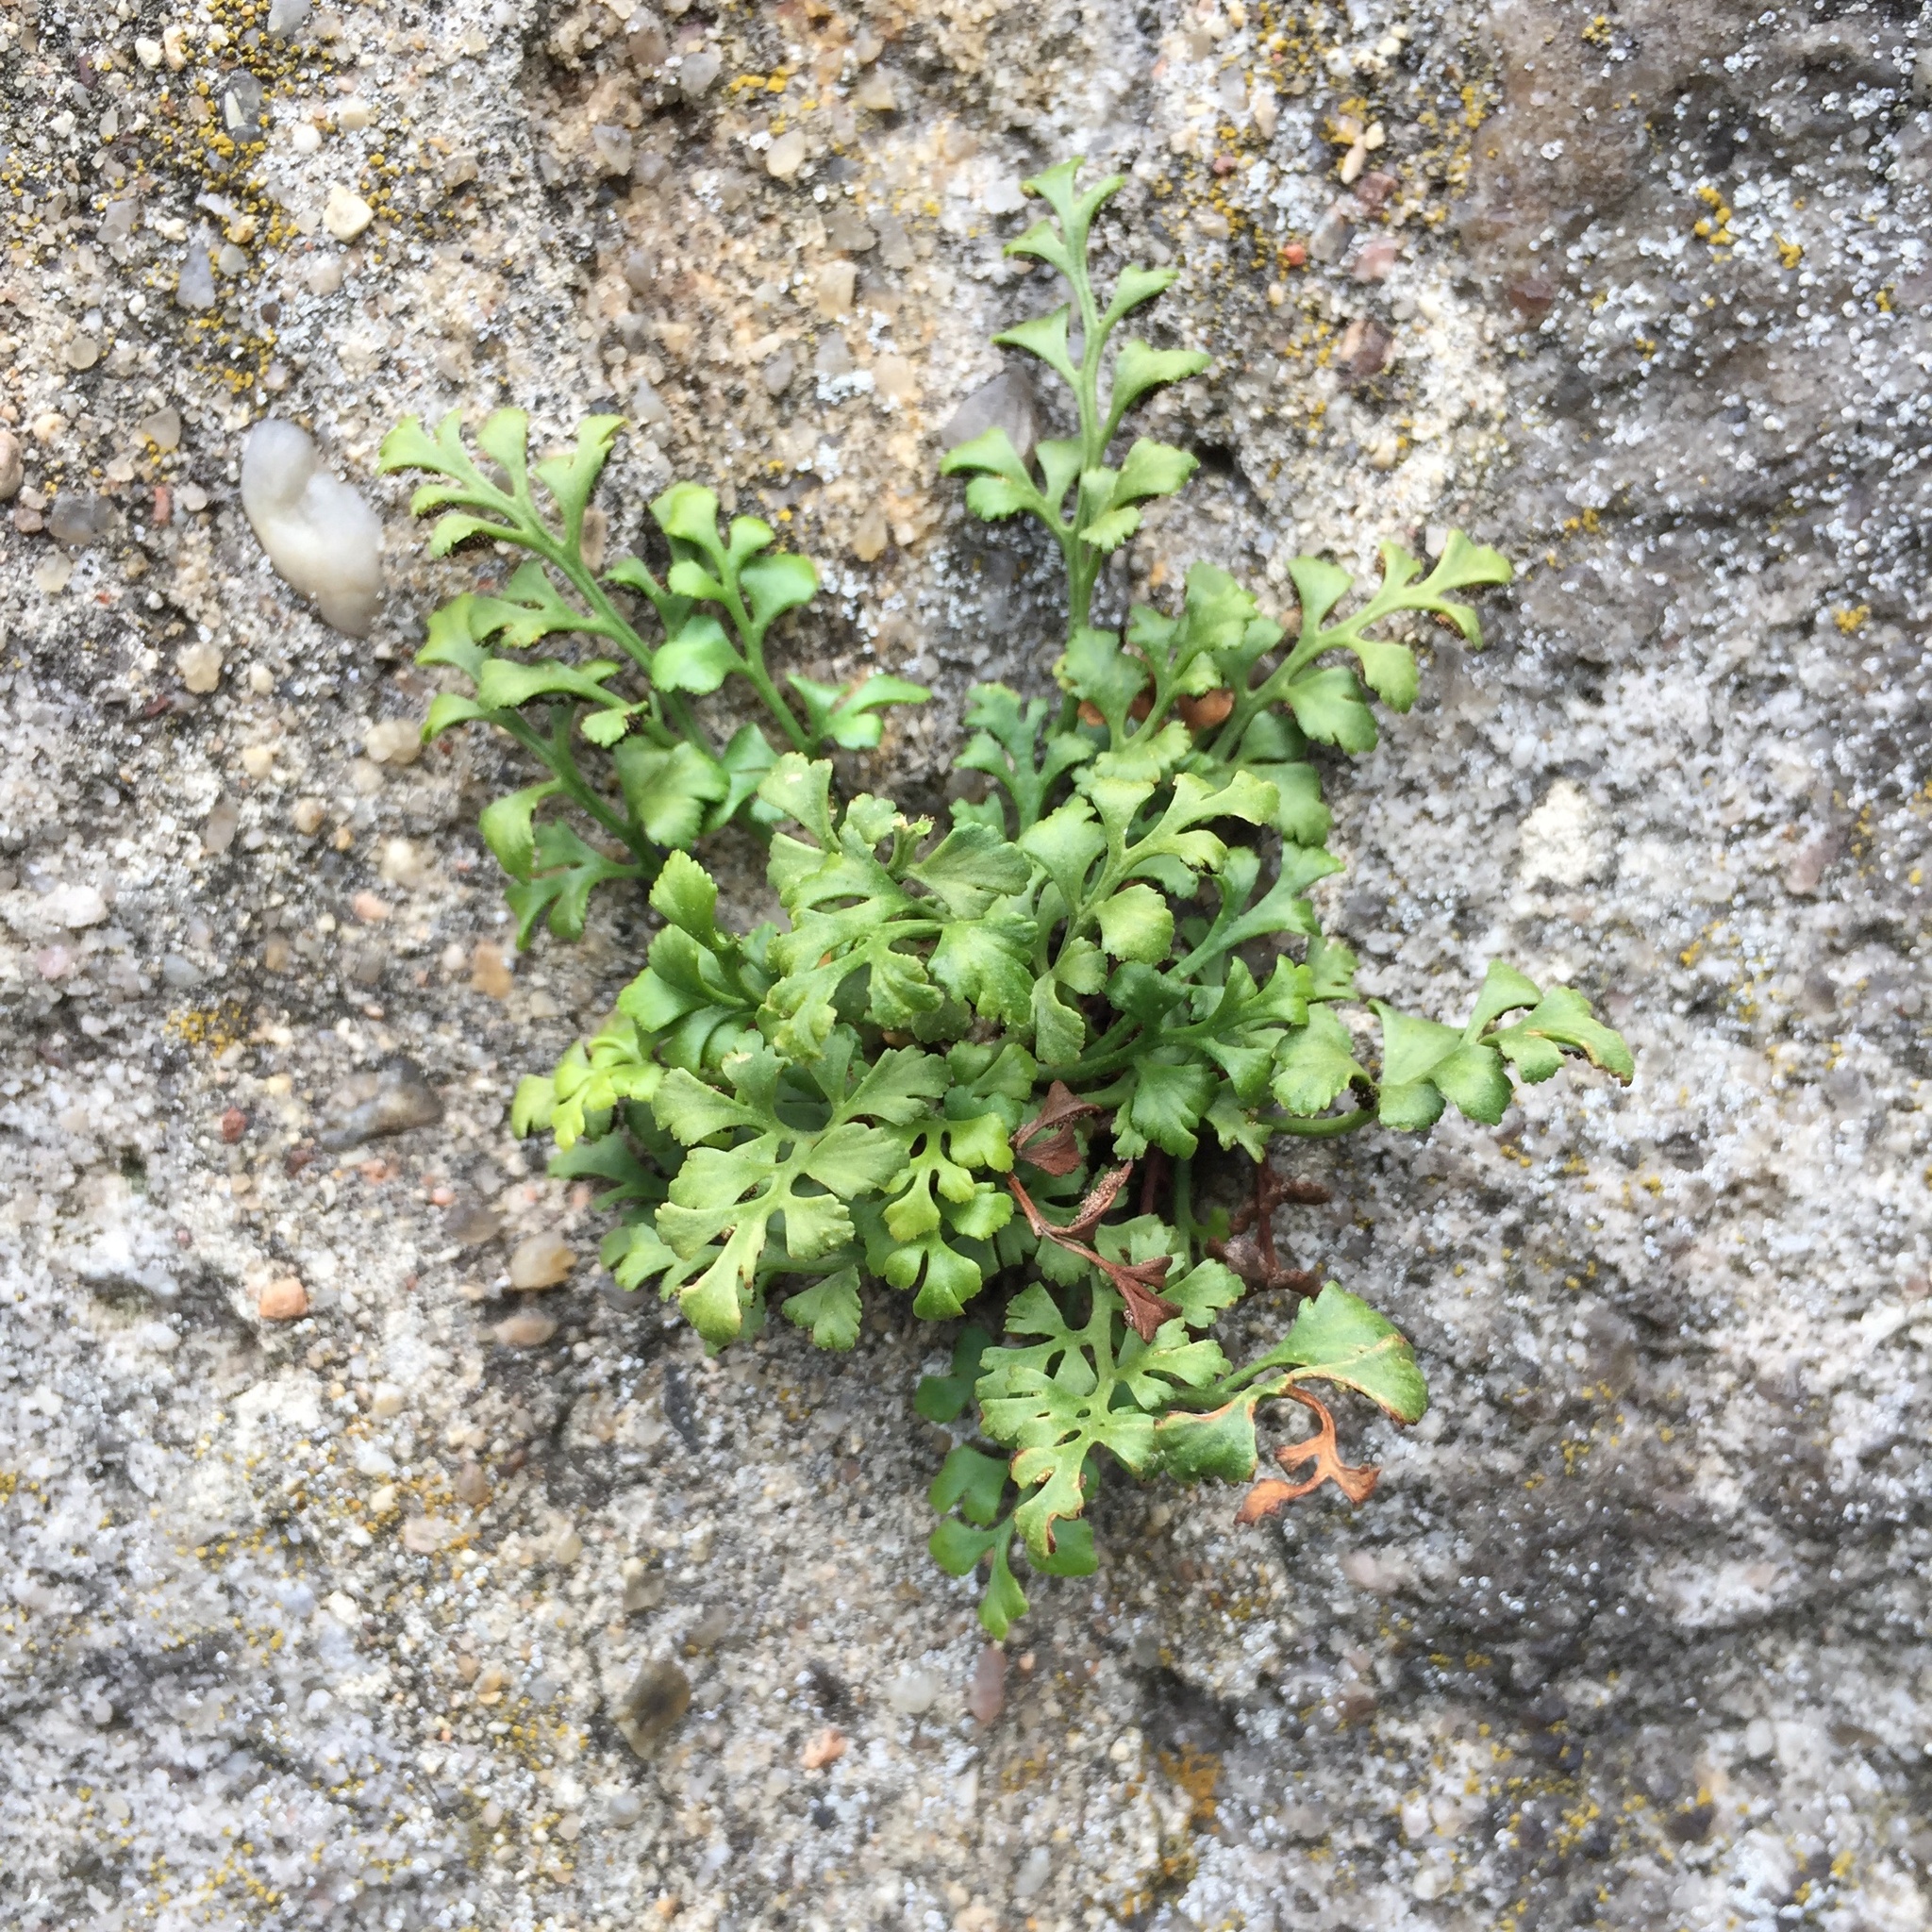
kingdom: Plantae
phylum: Tracheophyta
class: Polypodiopsida
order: Polypodiales
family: Aspleniaceae
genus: Asplenium
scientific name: Asplenium ruta-muraria
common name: Wall-rue
